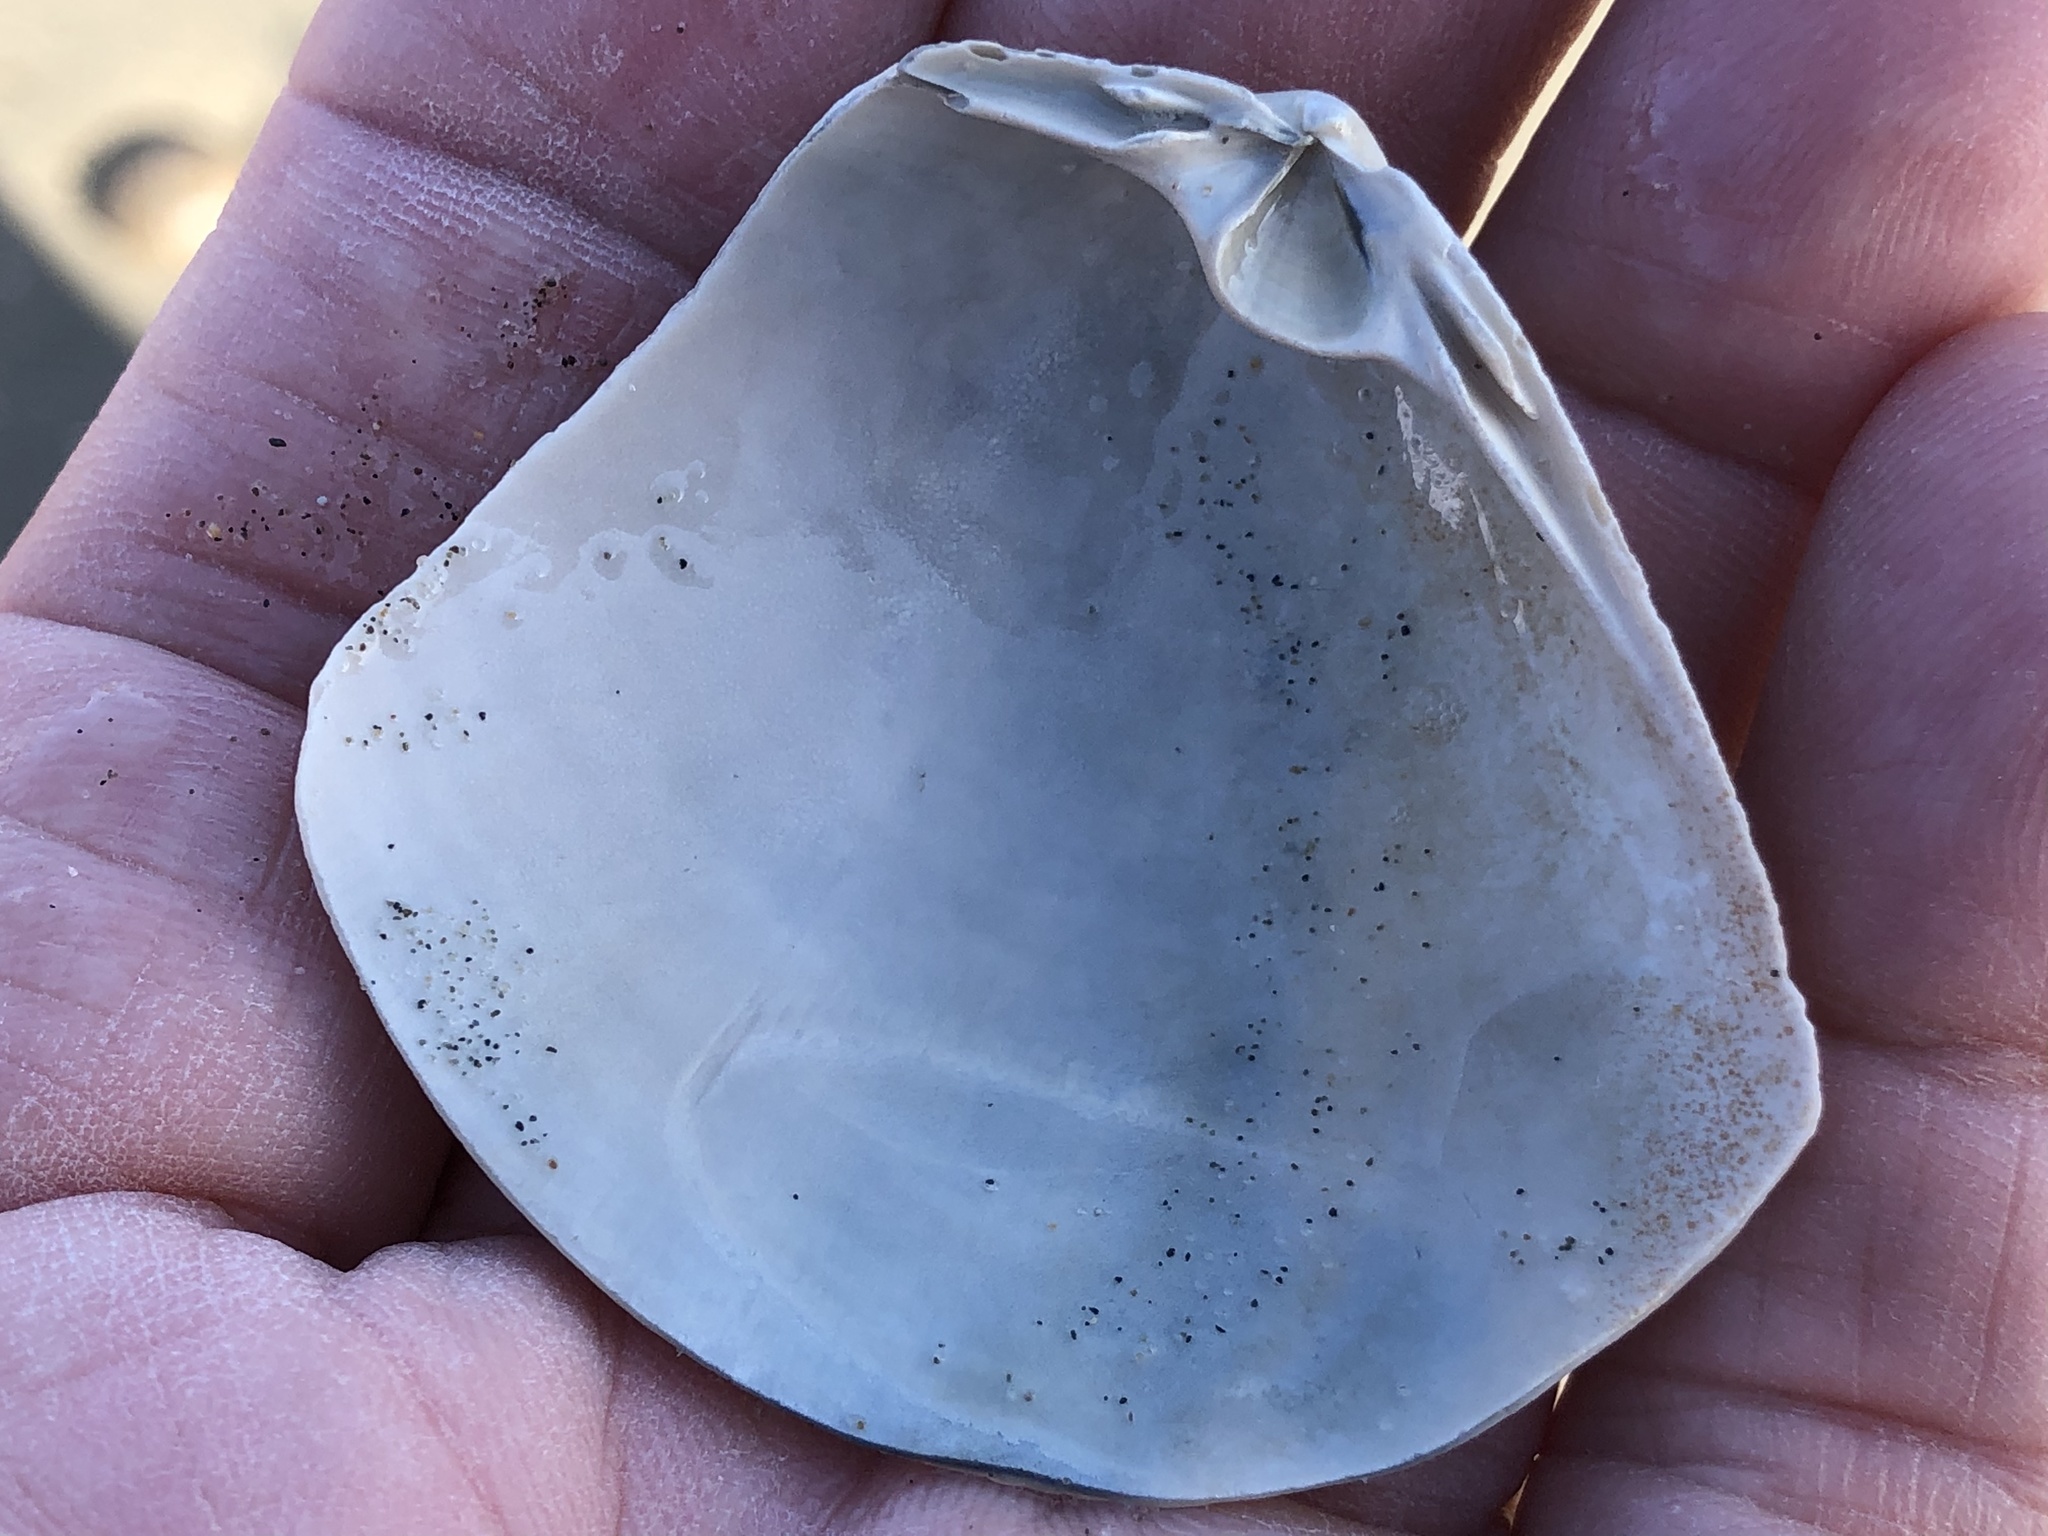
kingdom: Animalia
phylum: Mollusca
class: Bivalvia
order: Venerida
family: Mactridae
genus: Mactromeris
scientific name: Mactromeris catilliformis
